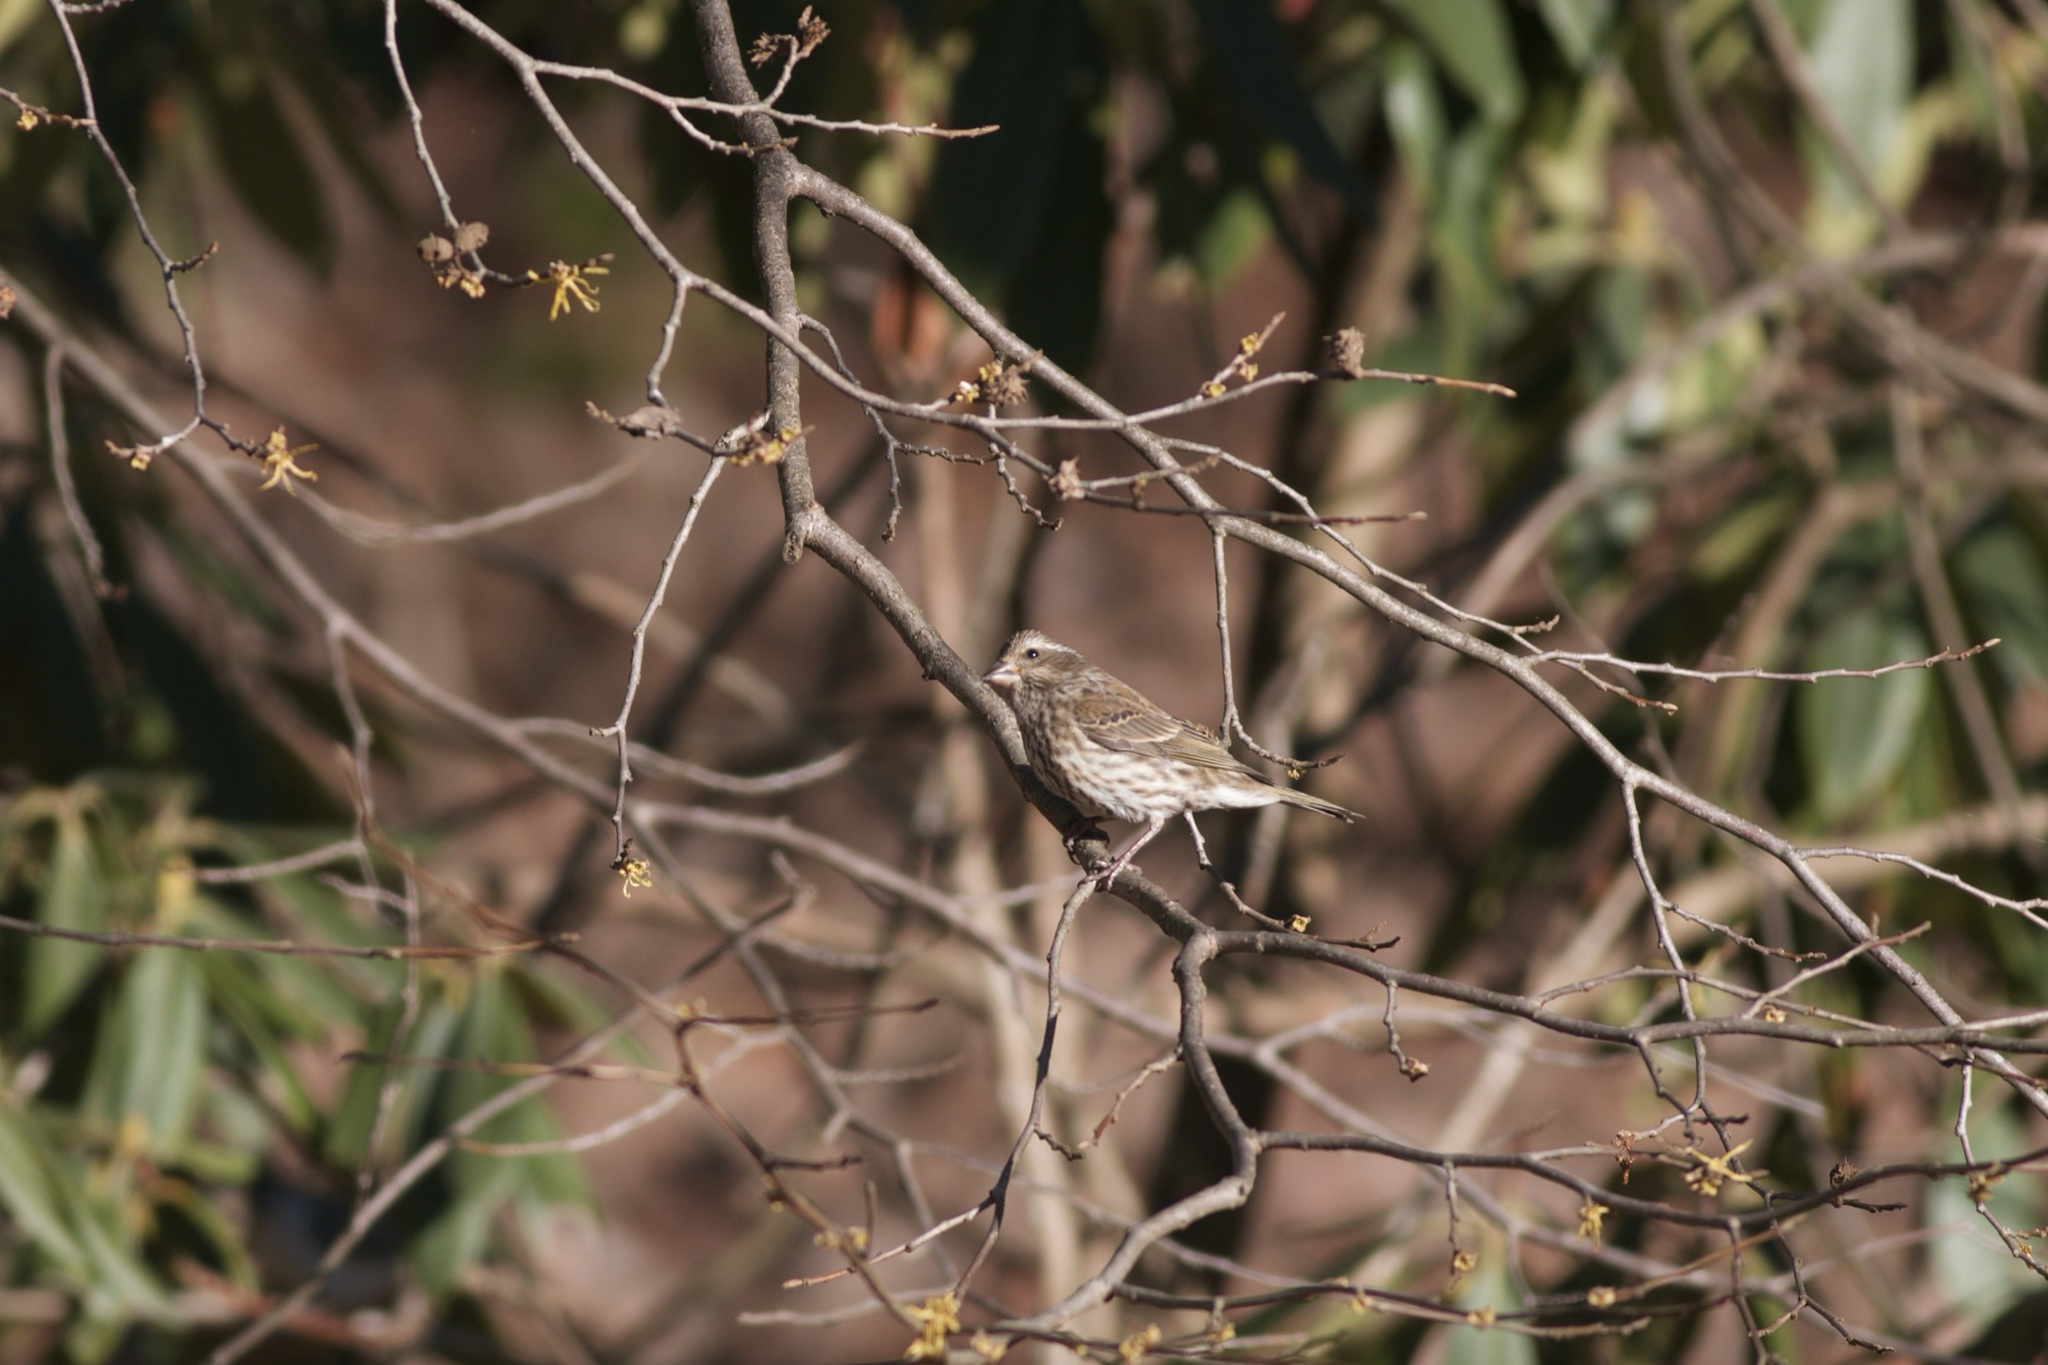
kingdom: Animalia
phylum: Chordata
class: Aves
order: Passeriformes
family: Fringillidae
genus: Haemorhous
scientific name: Haemorhous purpureus
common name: Purple finch
